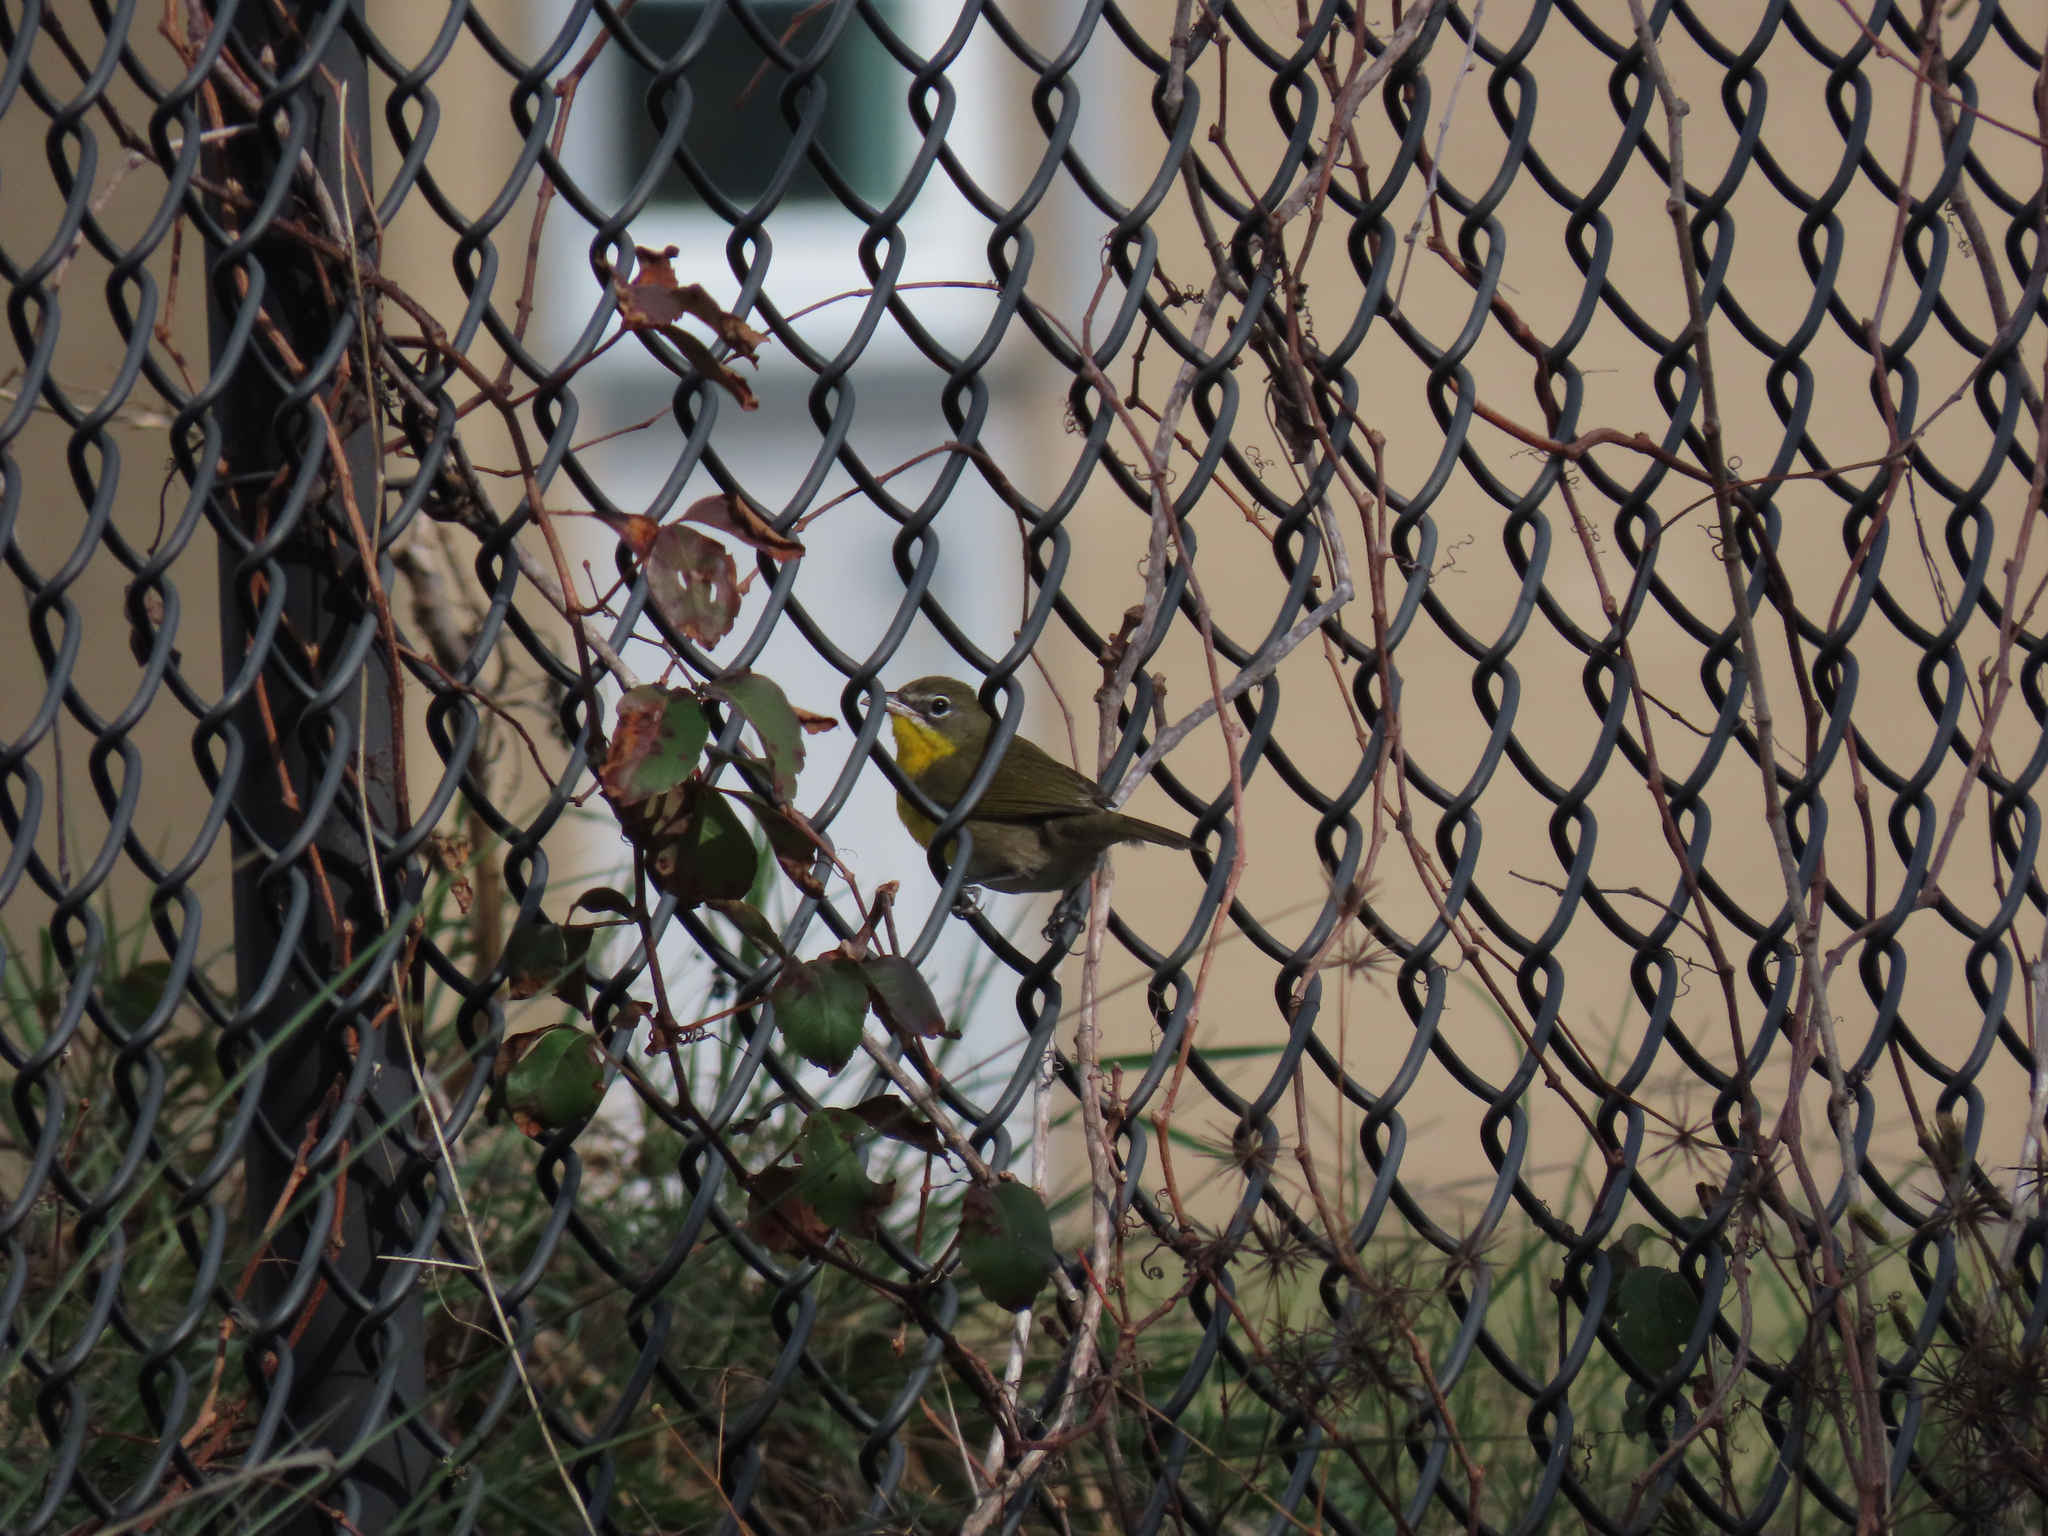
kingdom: Animalia
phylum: Chordata
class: Aves
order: Passeriformes
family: Parulidae
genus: Icteria
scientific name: Icteria virens
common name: Yellow-breasted chat
